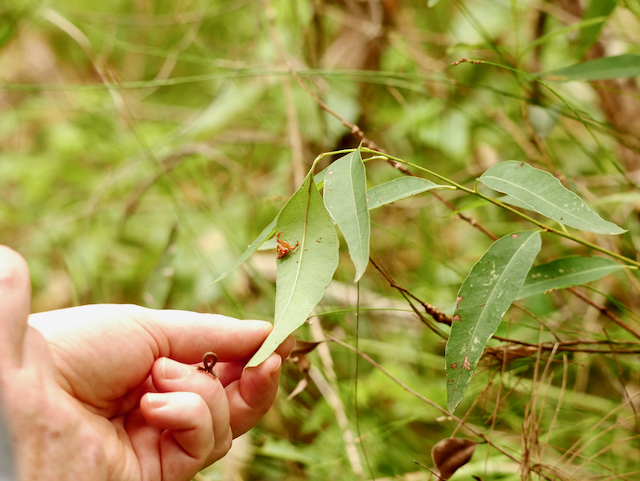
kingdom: Animalia
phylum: Arthropoda
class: Arachnida
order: Araneae
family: Arkyidae
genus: Arkys
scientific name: Arkys lancearius
